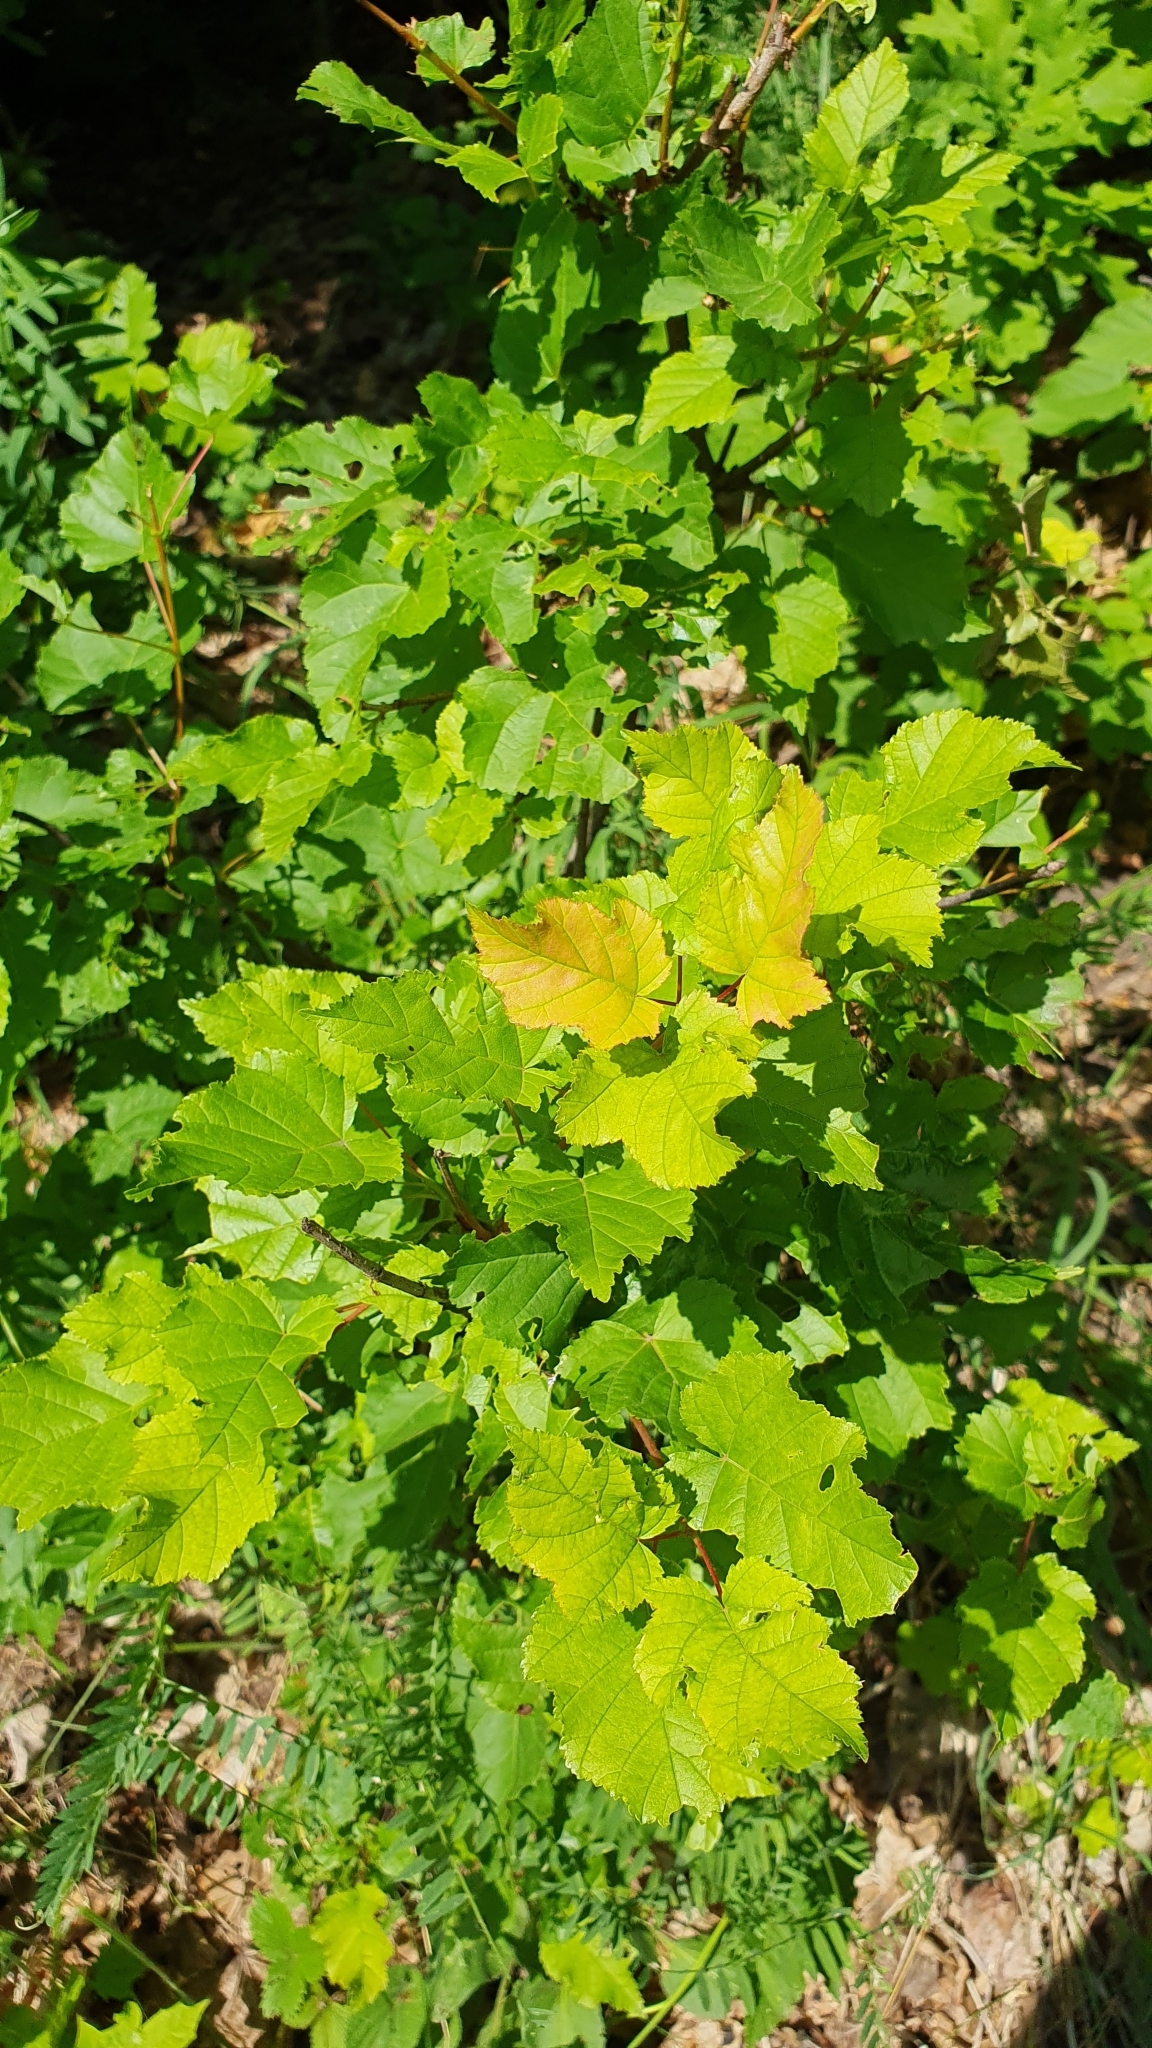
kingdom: Plantae
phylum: Tracheophyta
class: Magnoliopsida
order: Sapindales
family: Sapindaceae
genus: Acer
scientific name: Acer tataricum
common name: Tartar maple
